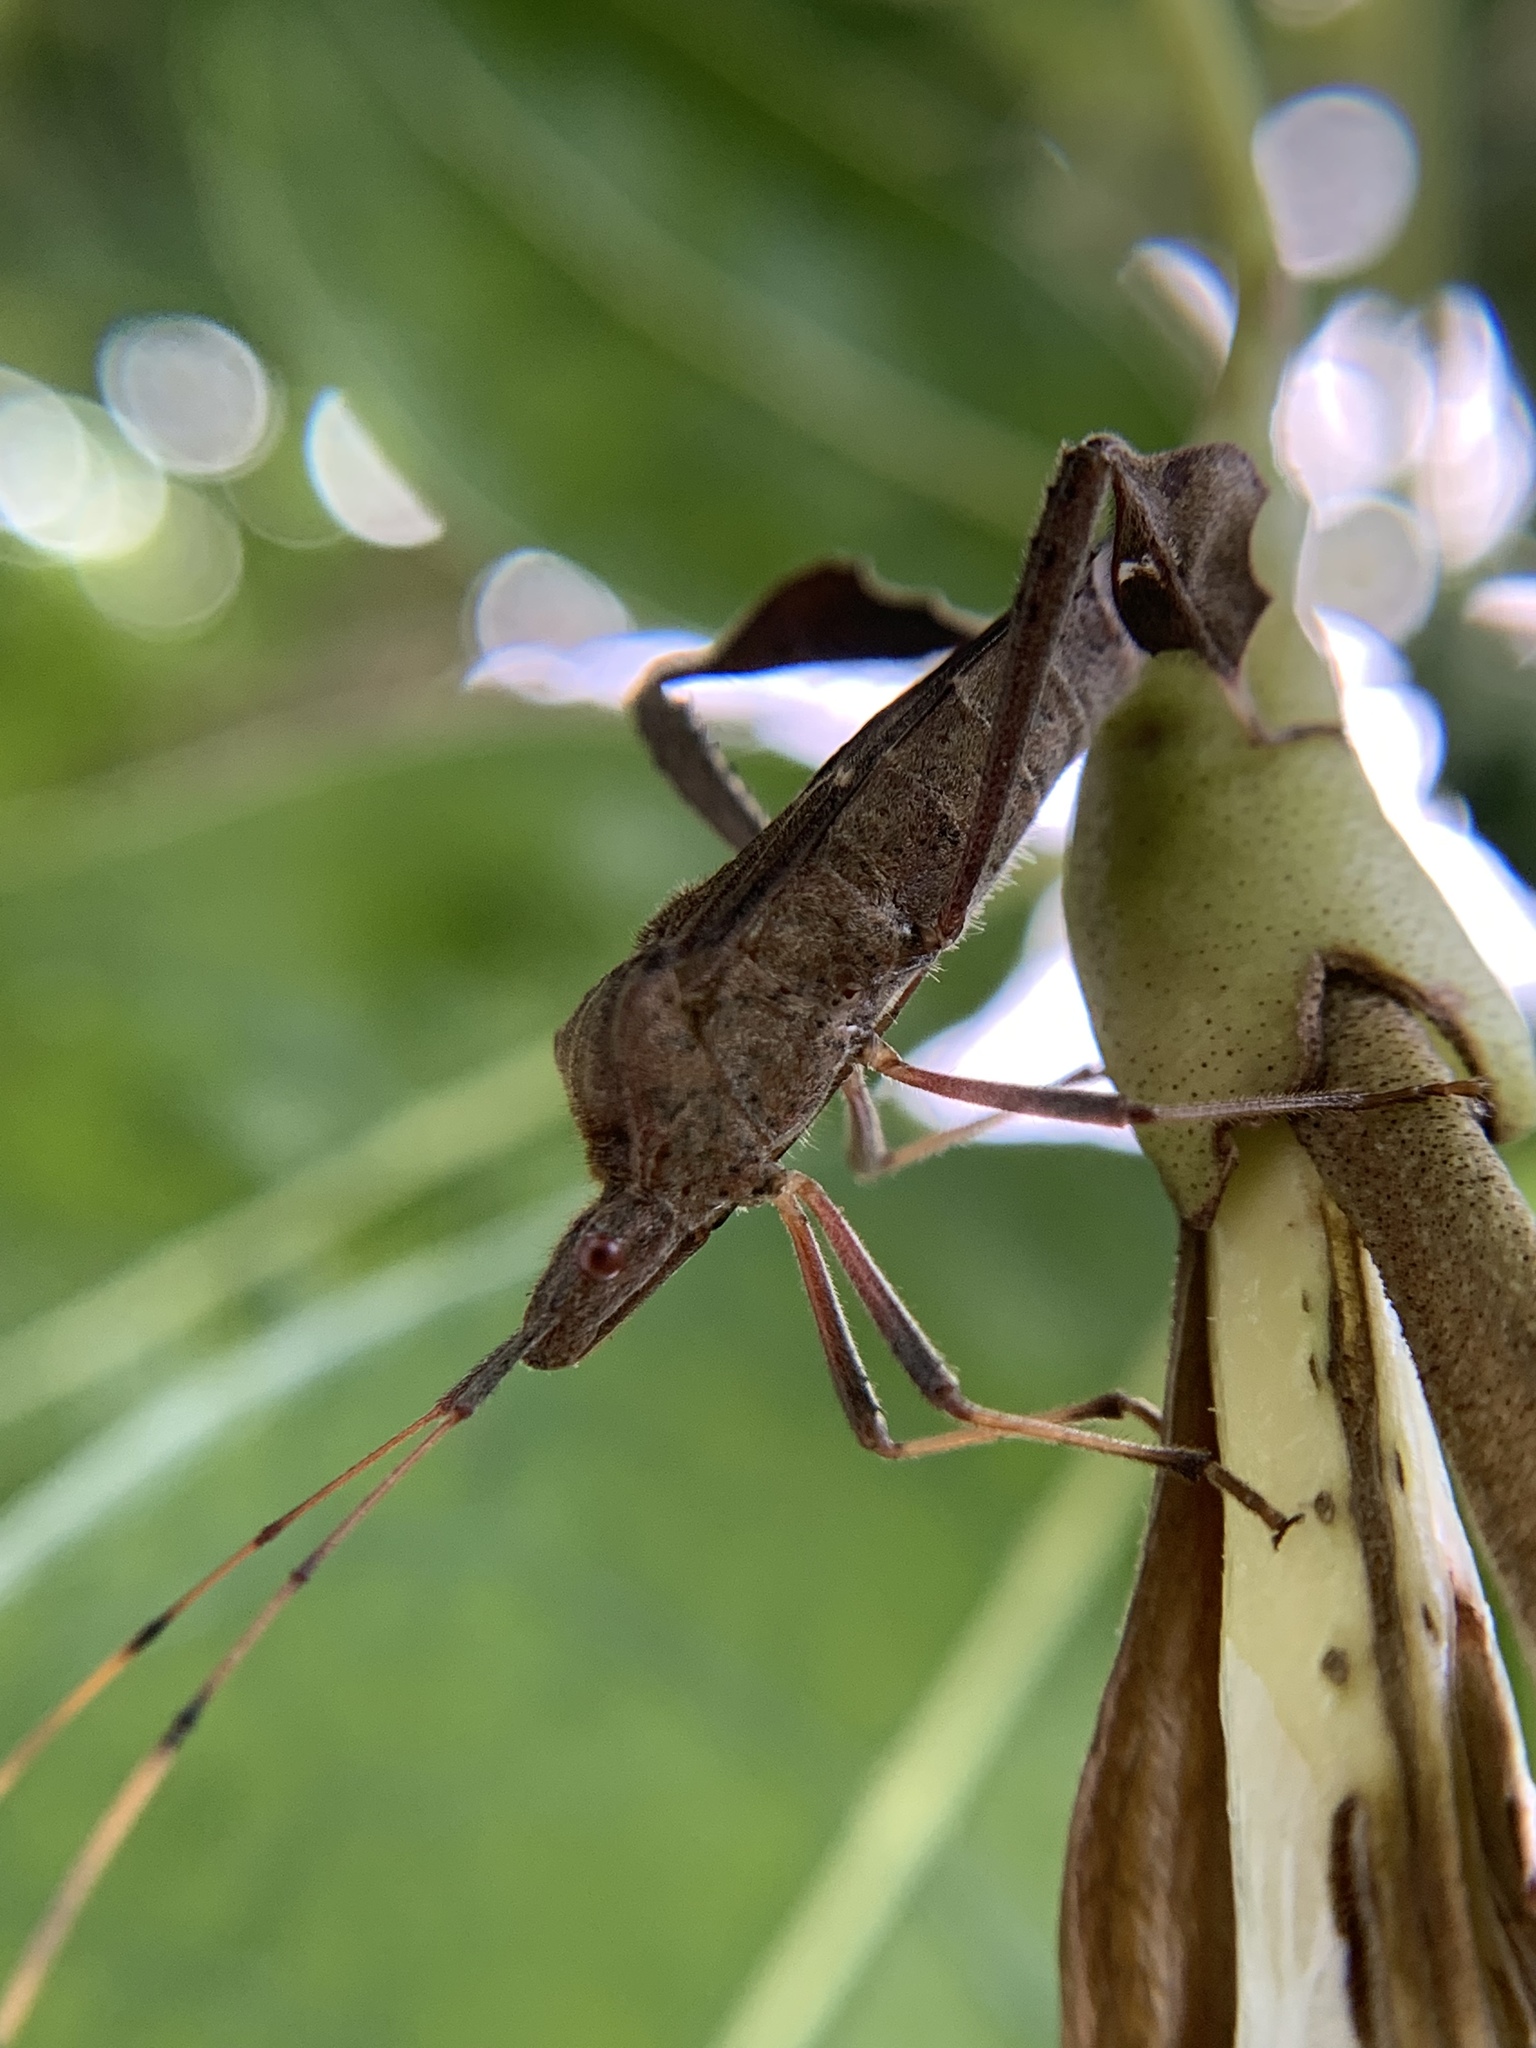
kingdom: Animalia
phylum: Arthropoda
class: Insecta
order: Hemiptera
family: Coreidae
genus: Leptoglossus
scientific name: Leptoglossus concolor
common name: Leaf-footed bug
